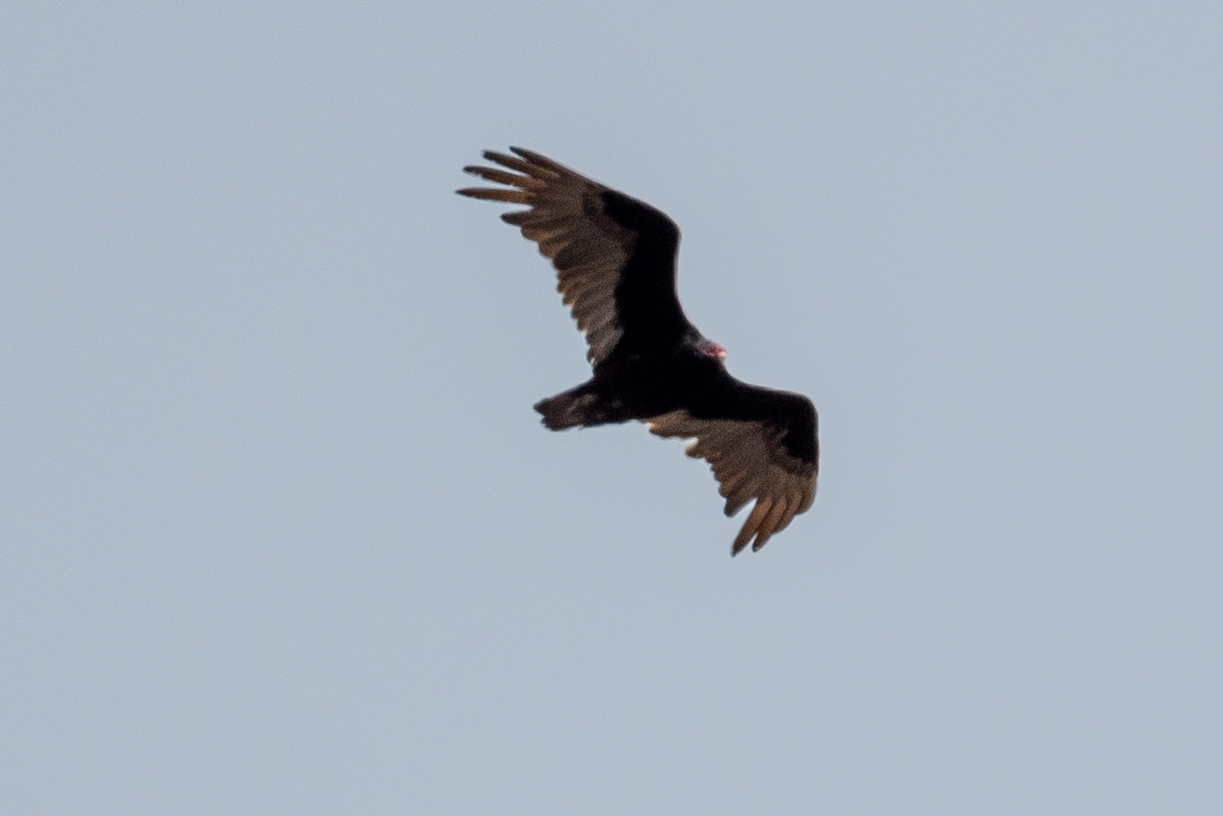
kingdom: Animalia
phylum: Chordata
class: Aves
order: Accipitriformes
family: Cathartidae
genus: Cathartes
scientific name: Cathartes aura
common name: Turkey vulture
